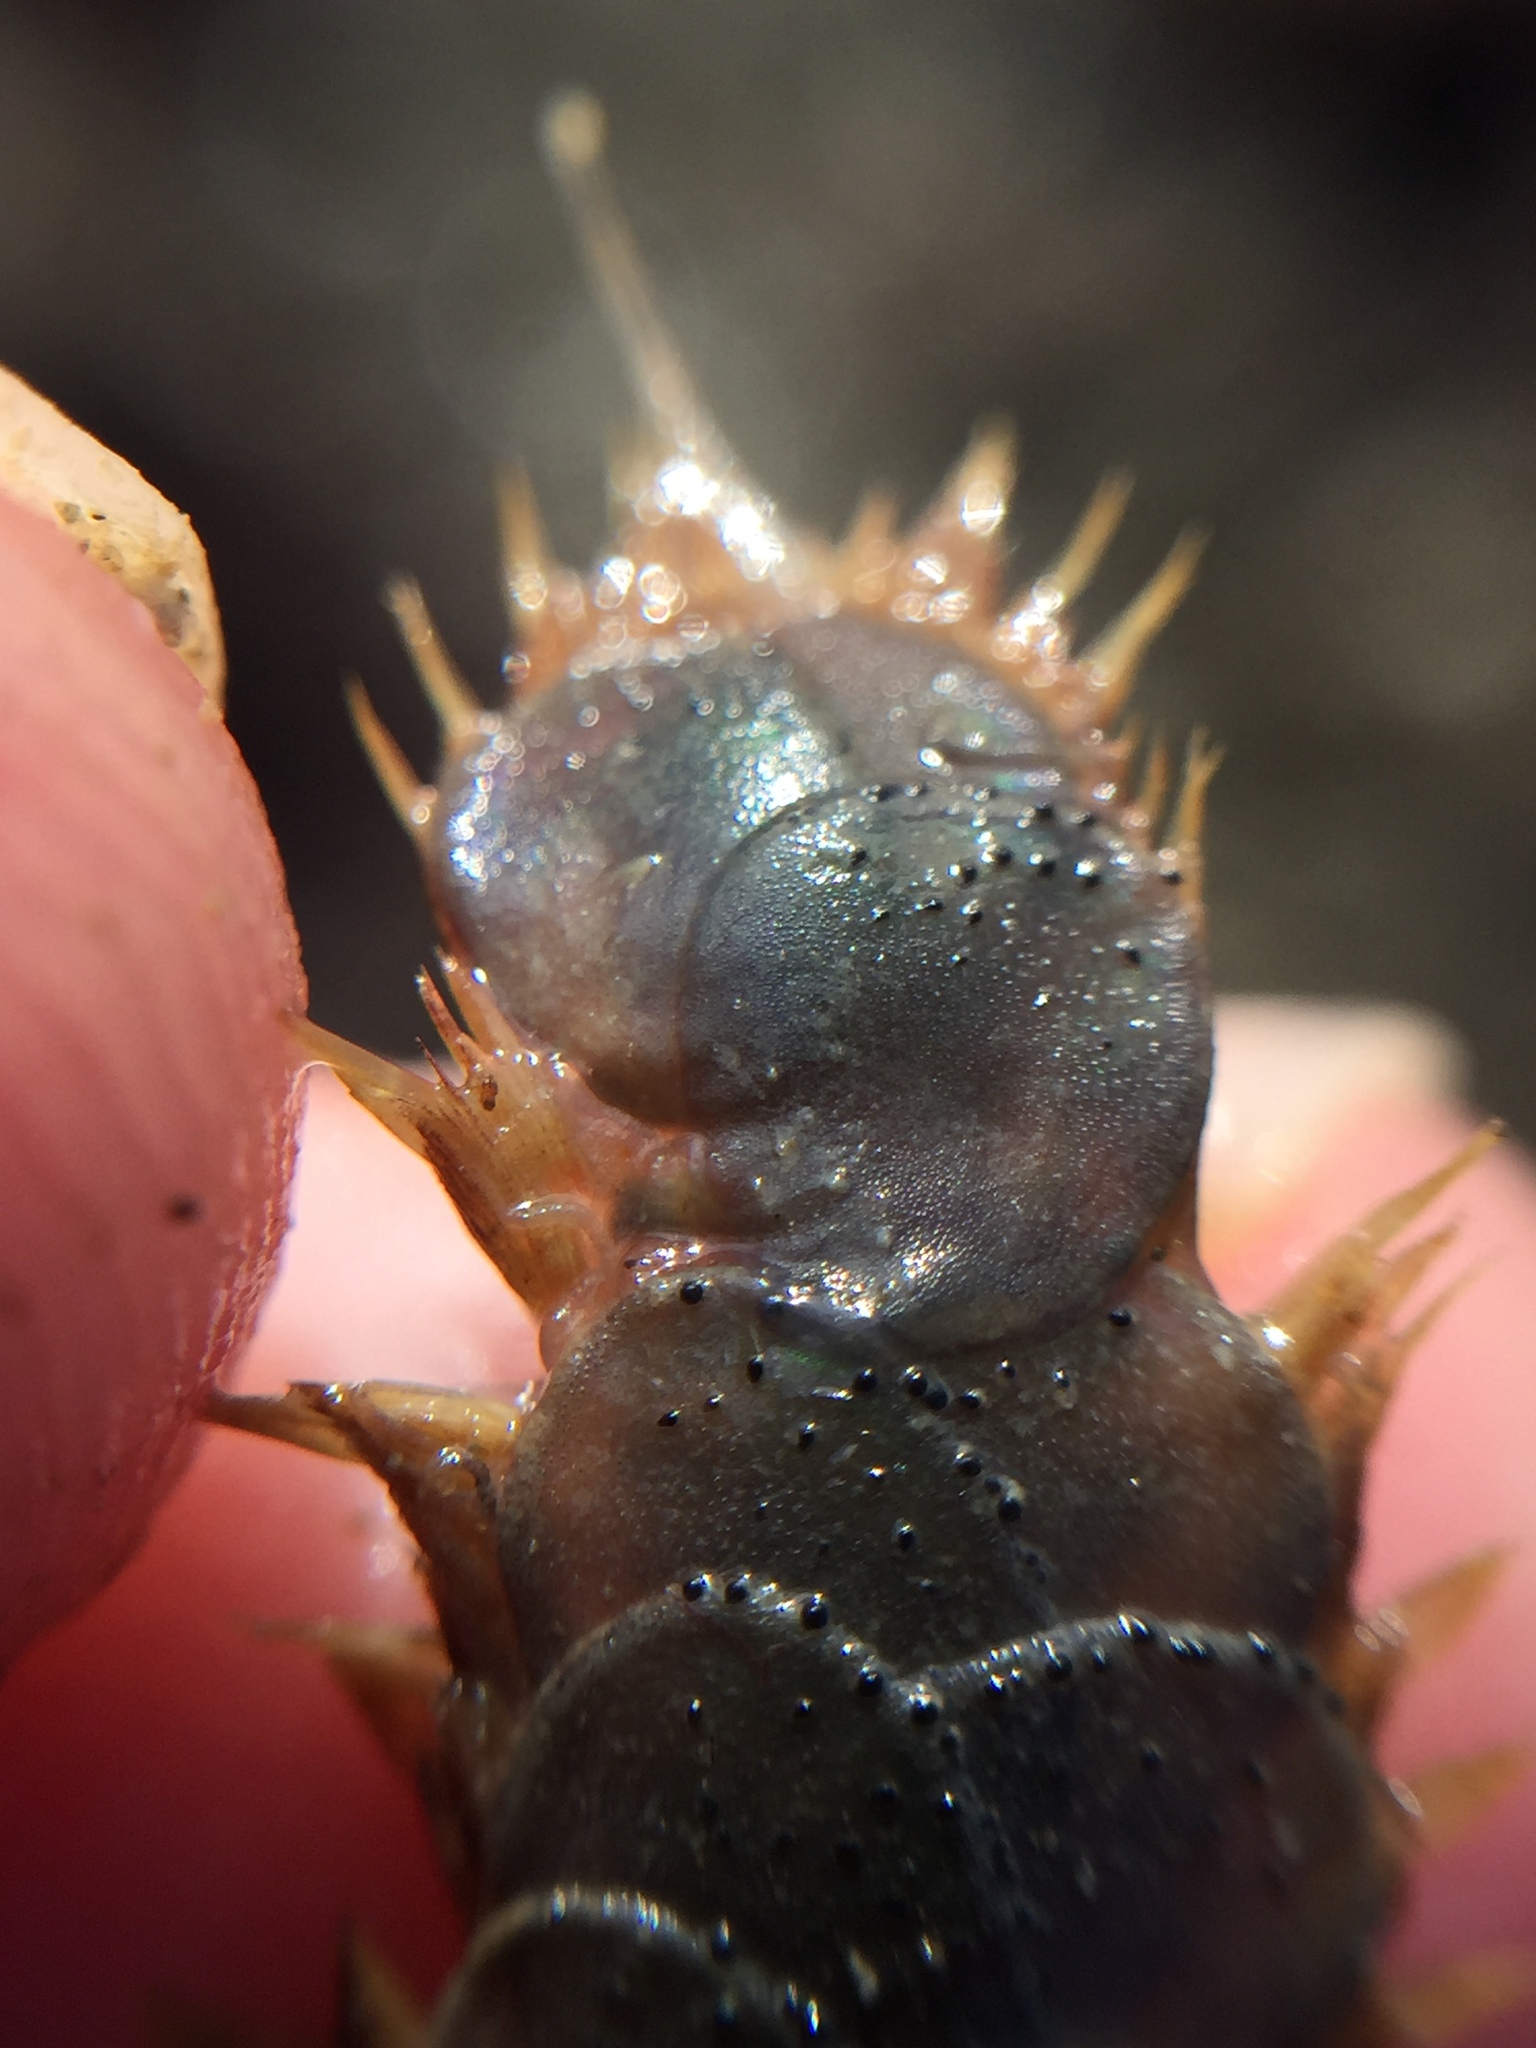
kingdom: Animalia
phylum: Annelida
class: Polychaeta
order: Phyllodocida
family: Polynoidae
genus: Paralepidonotus
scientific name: Paralepidonotus ampulliferus
